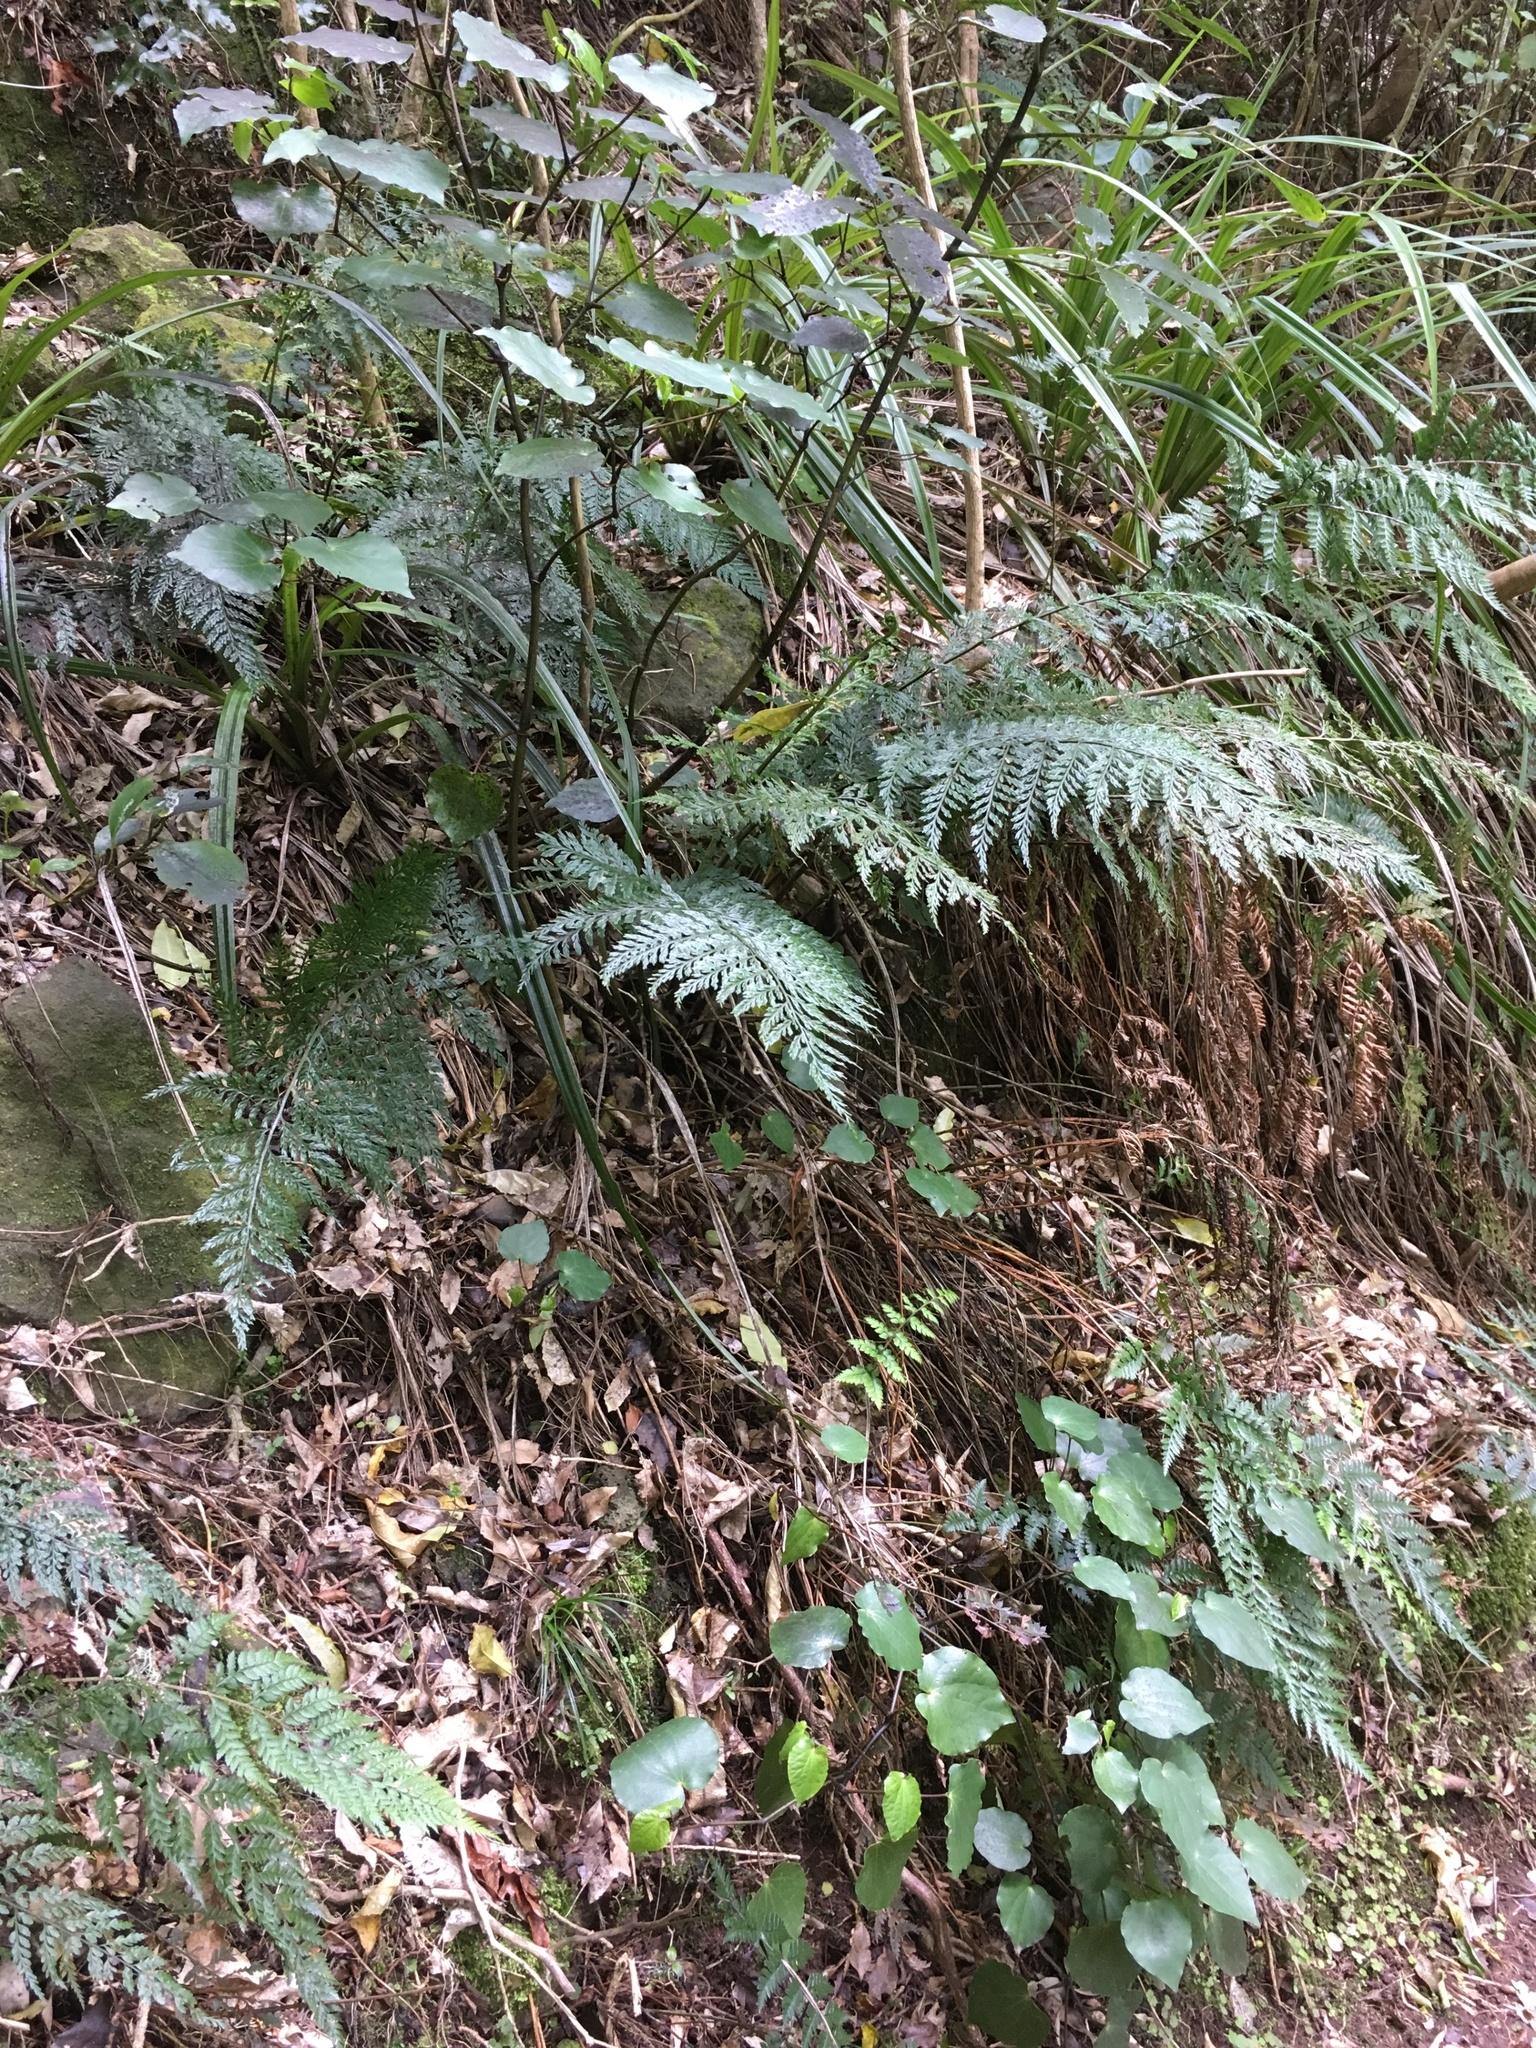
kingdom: Plantae
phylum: Tracheophyta
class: Magnoliopsida
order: Piperales
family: Piperaceae
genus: Macropiper
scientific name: Macropiper excelsum
